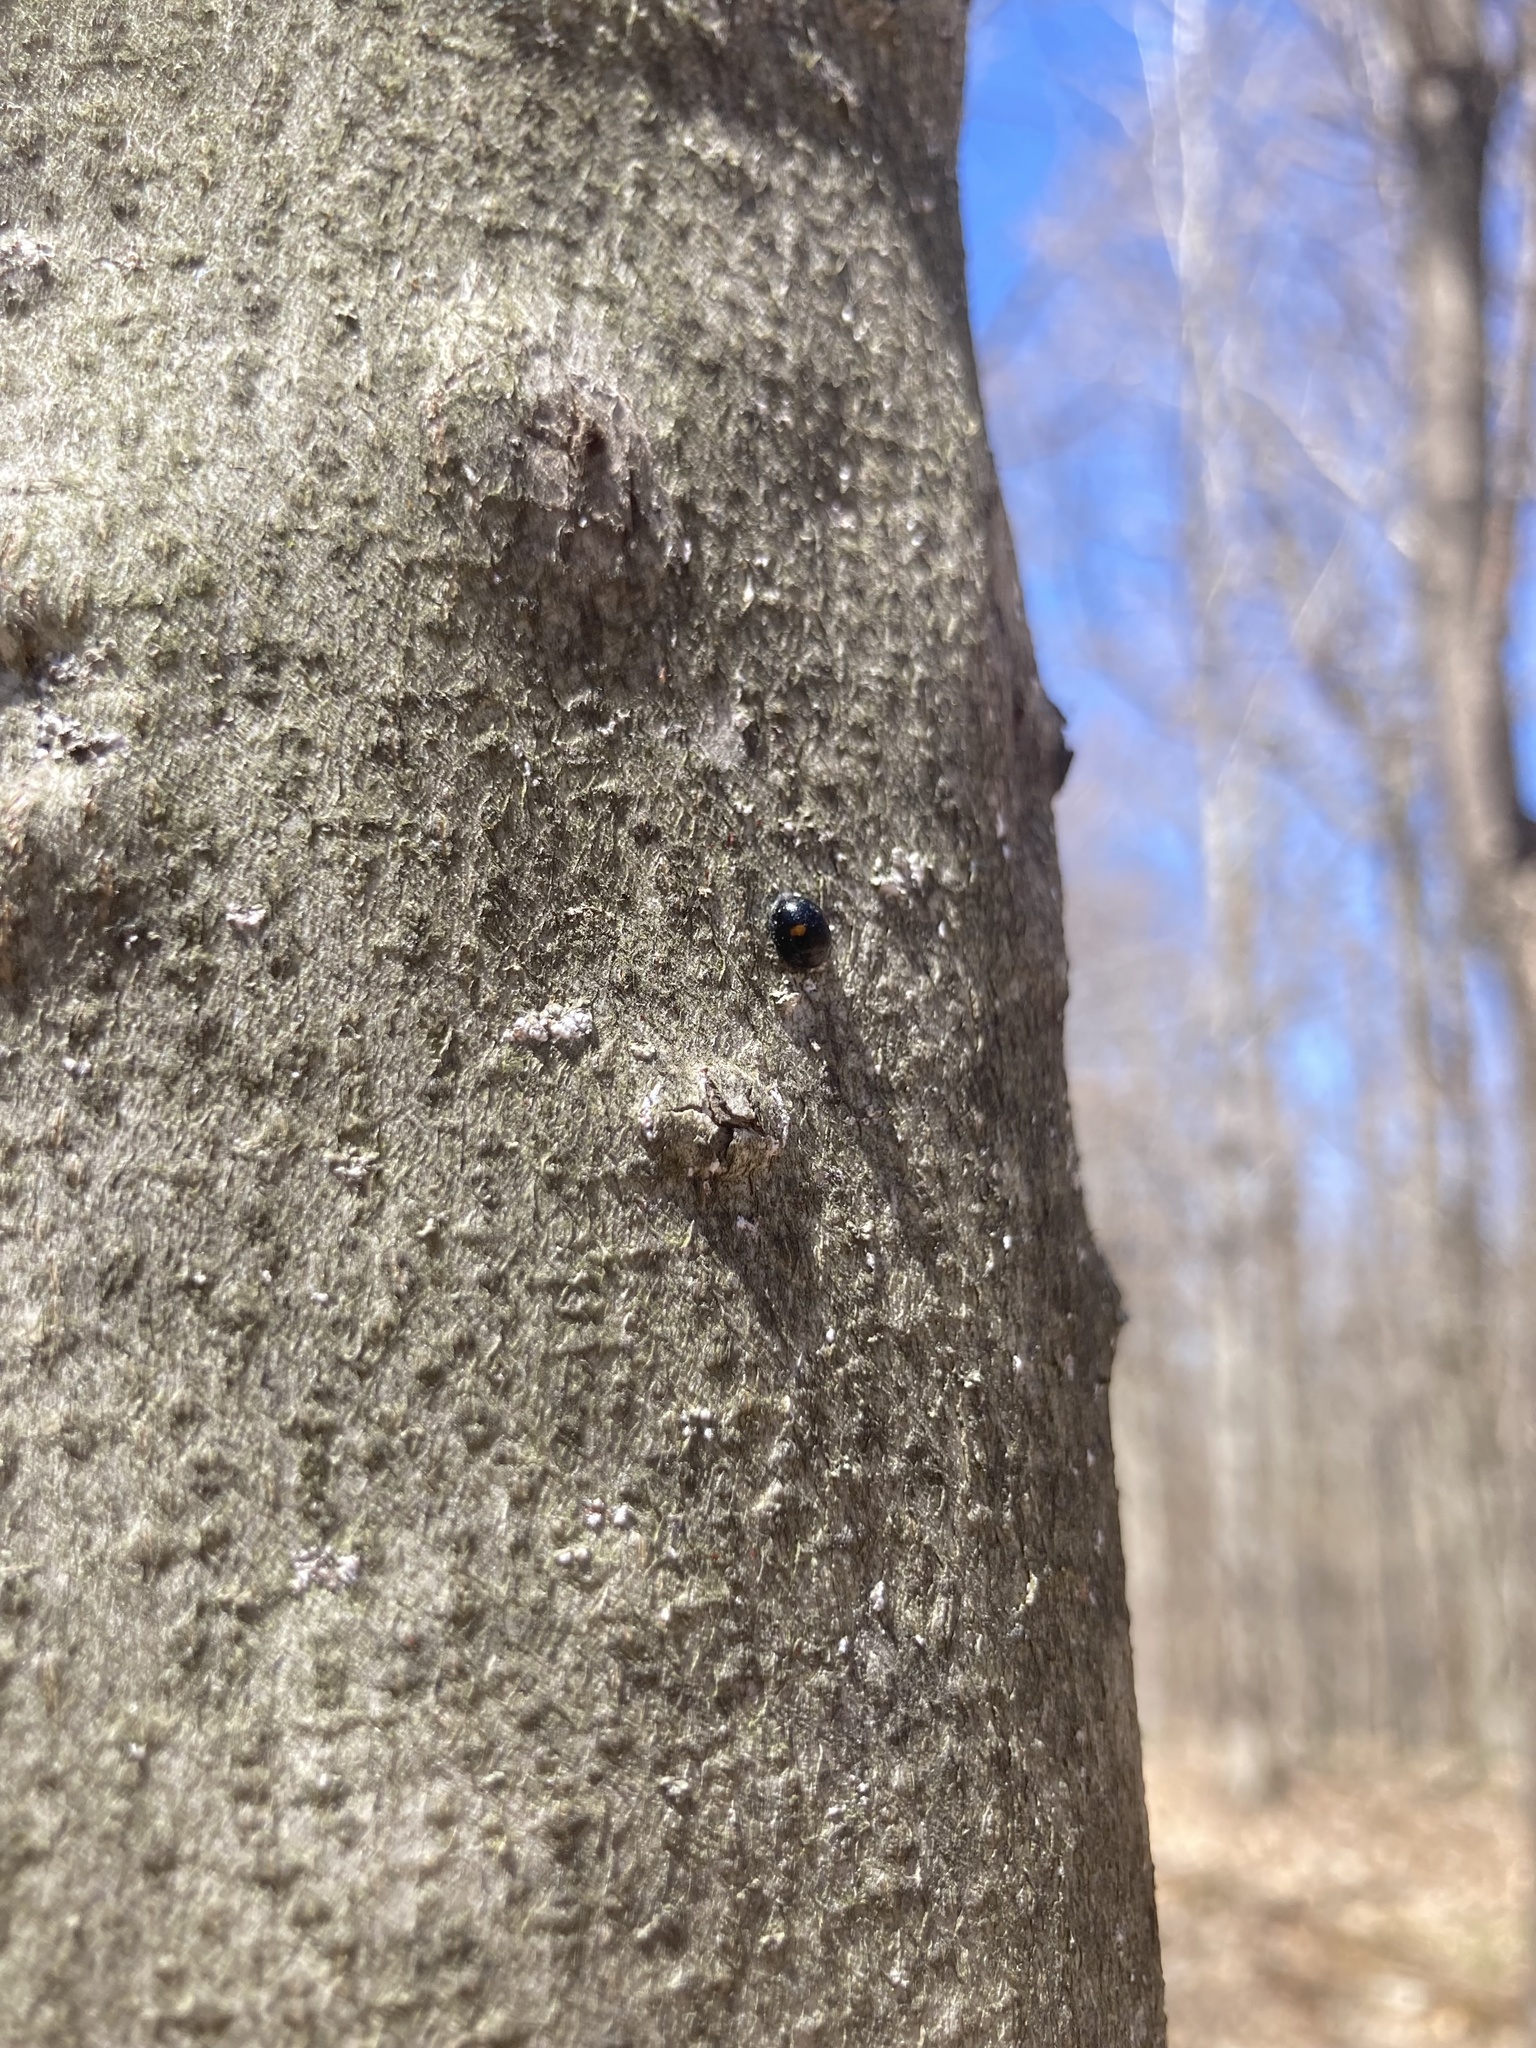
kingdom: Animalia
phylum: Arthropoda
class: Insecta
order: Coleoptera
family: Coccinellidae
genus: Chilocorus
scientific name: Chilocorus stigma
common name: Twicestabbed lady beetle
